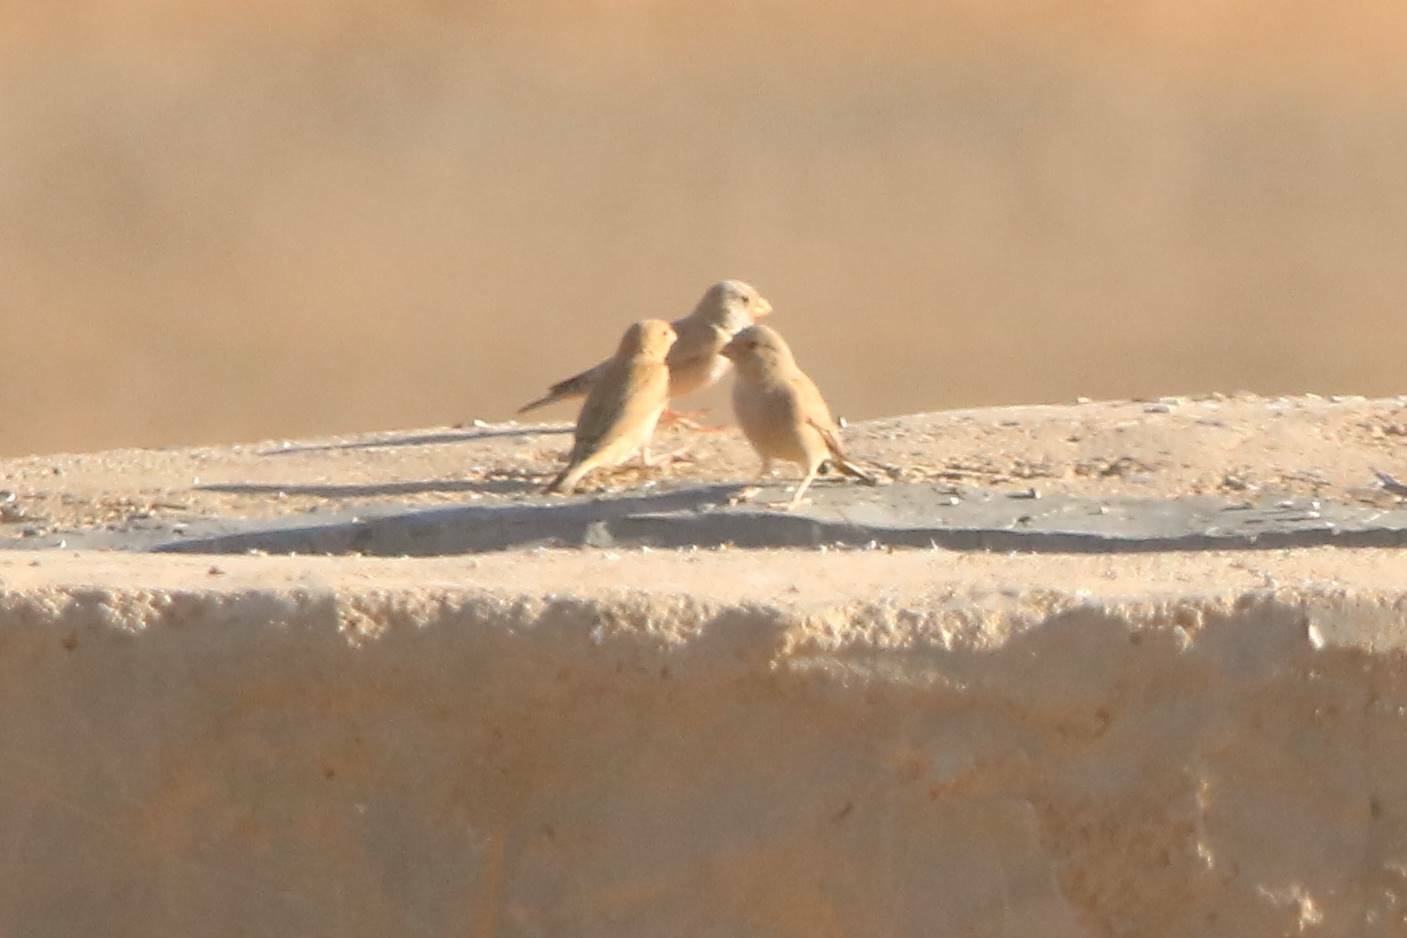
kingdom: Animalia
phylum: Chordata
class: Aves
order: Passeriformes
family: Fringillidae
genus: Bucanetes
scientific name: Bucanetes githagineus
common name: Trumpeter finch
